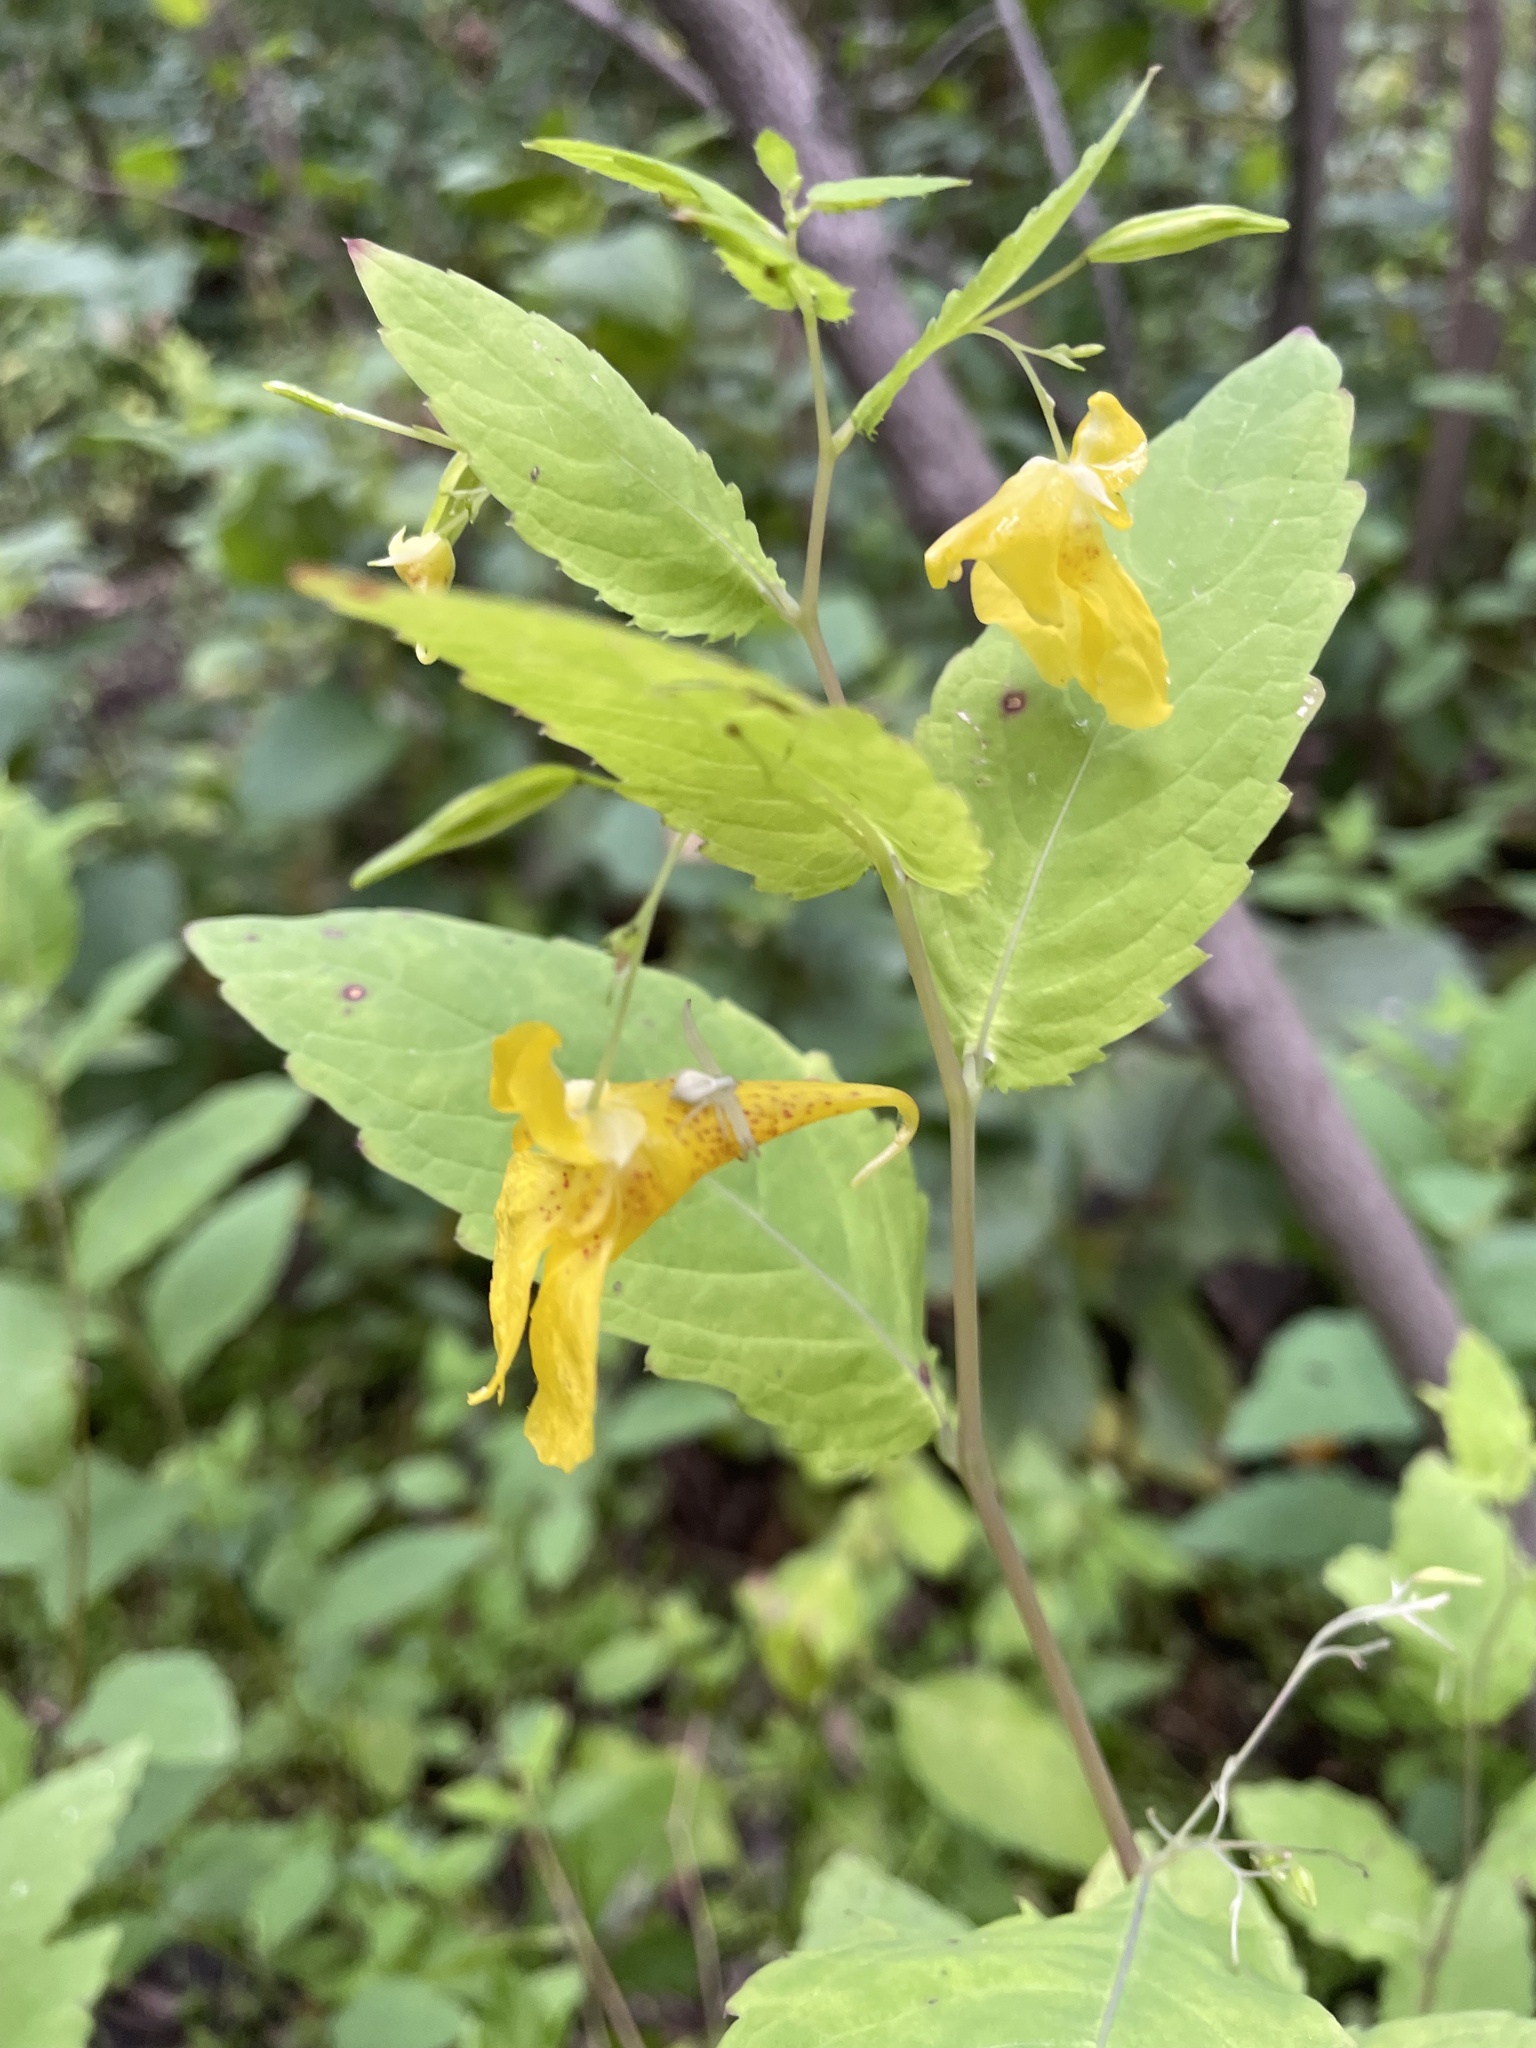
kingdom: Plantae
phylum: Tracheophyta
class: Magnoliopsida
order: Ericales
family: Balsaminaceae
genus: Impatiens
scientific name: Impatiens noli-tangere
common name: Touch-me-not balsam
